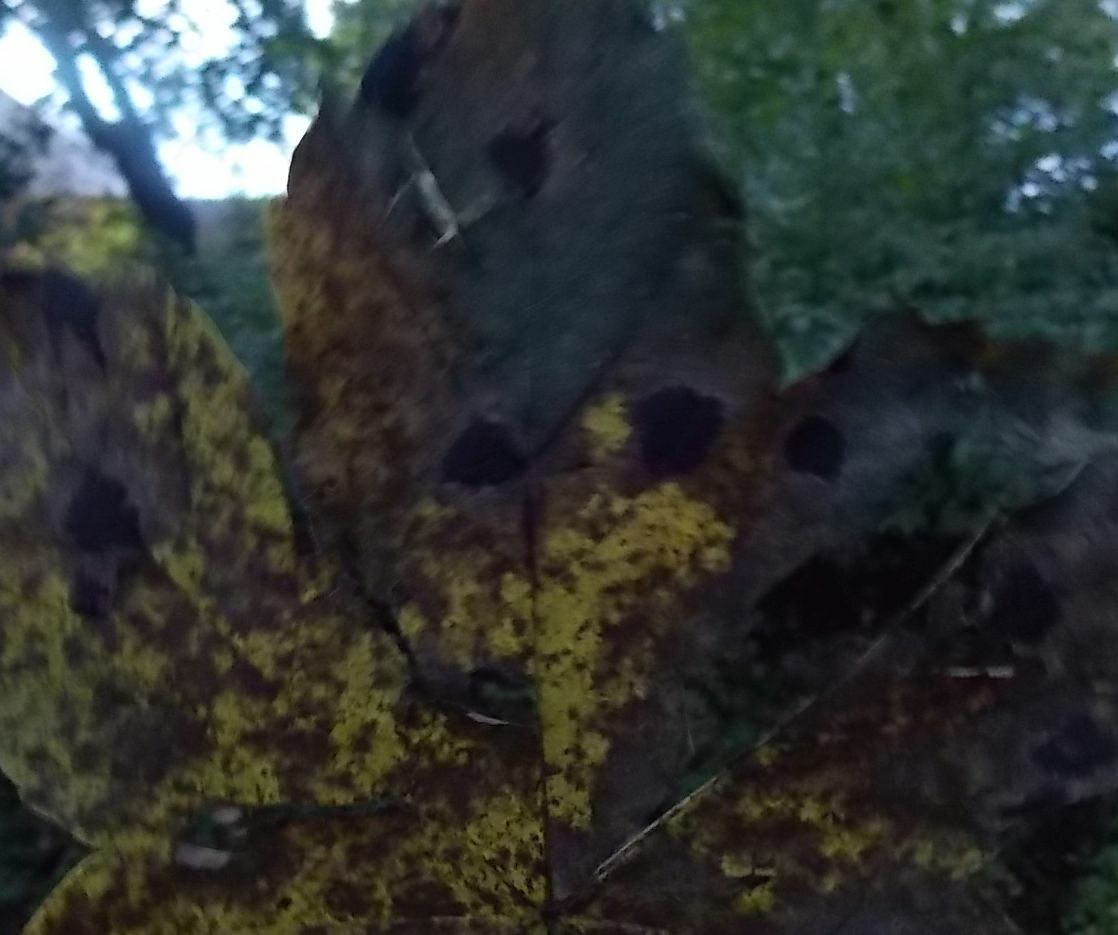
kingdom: Fungi
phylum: Ascomycota
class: Leotiomycetes
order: Rhytismatales
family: Rhytismataceae
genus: Rhytisma
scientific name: Rhytisma acerinum
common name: European tar spot
